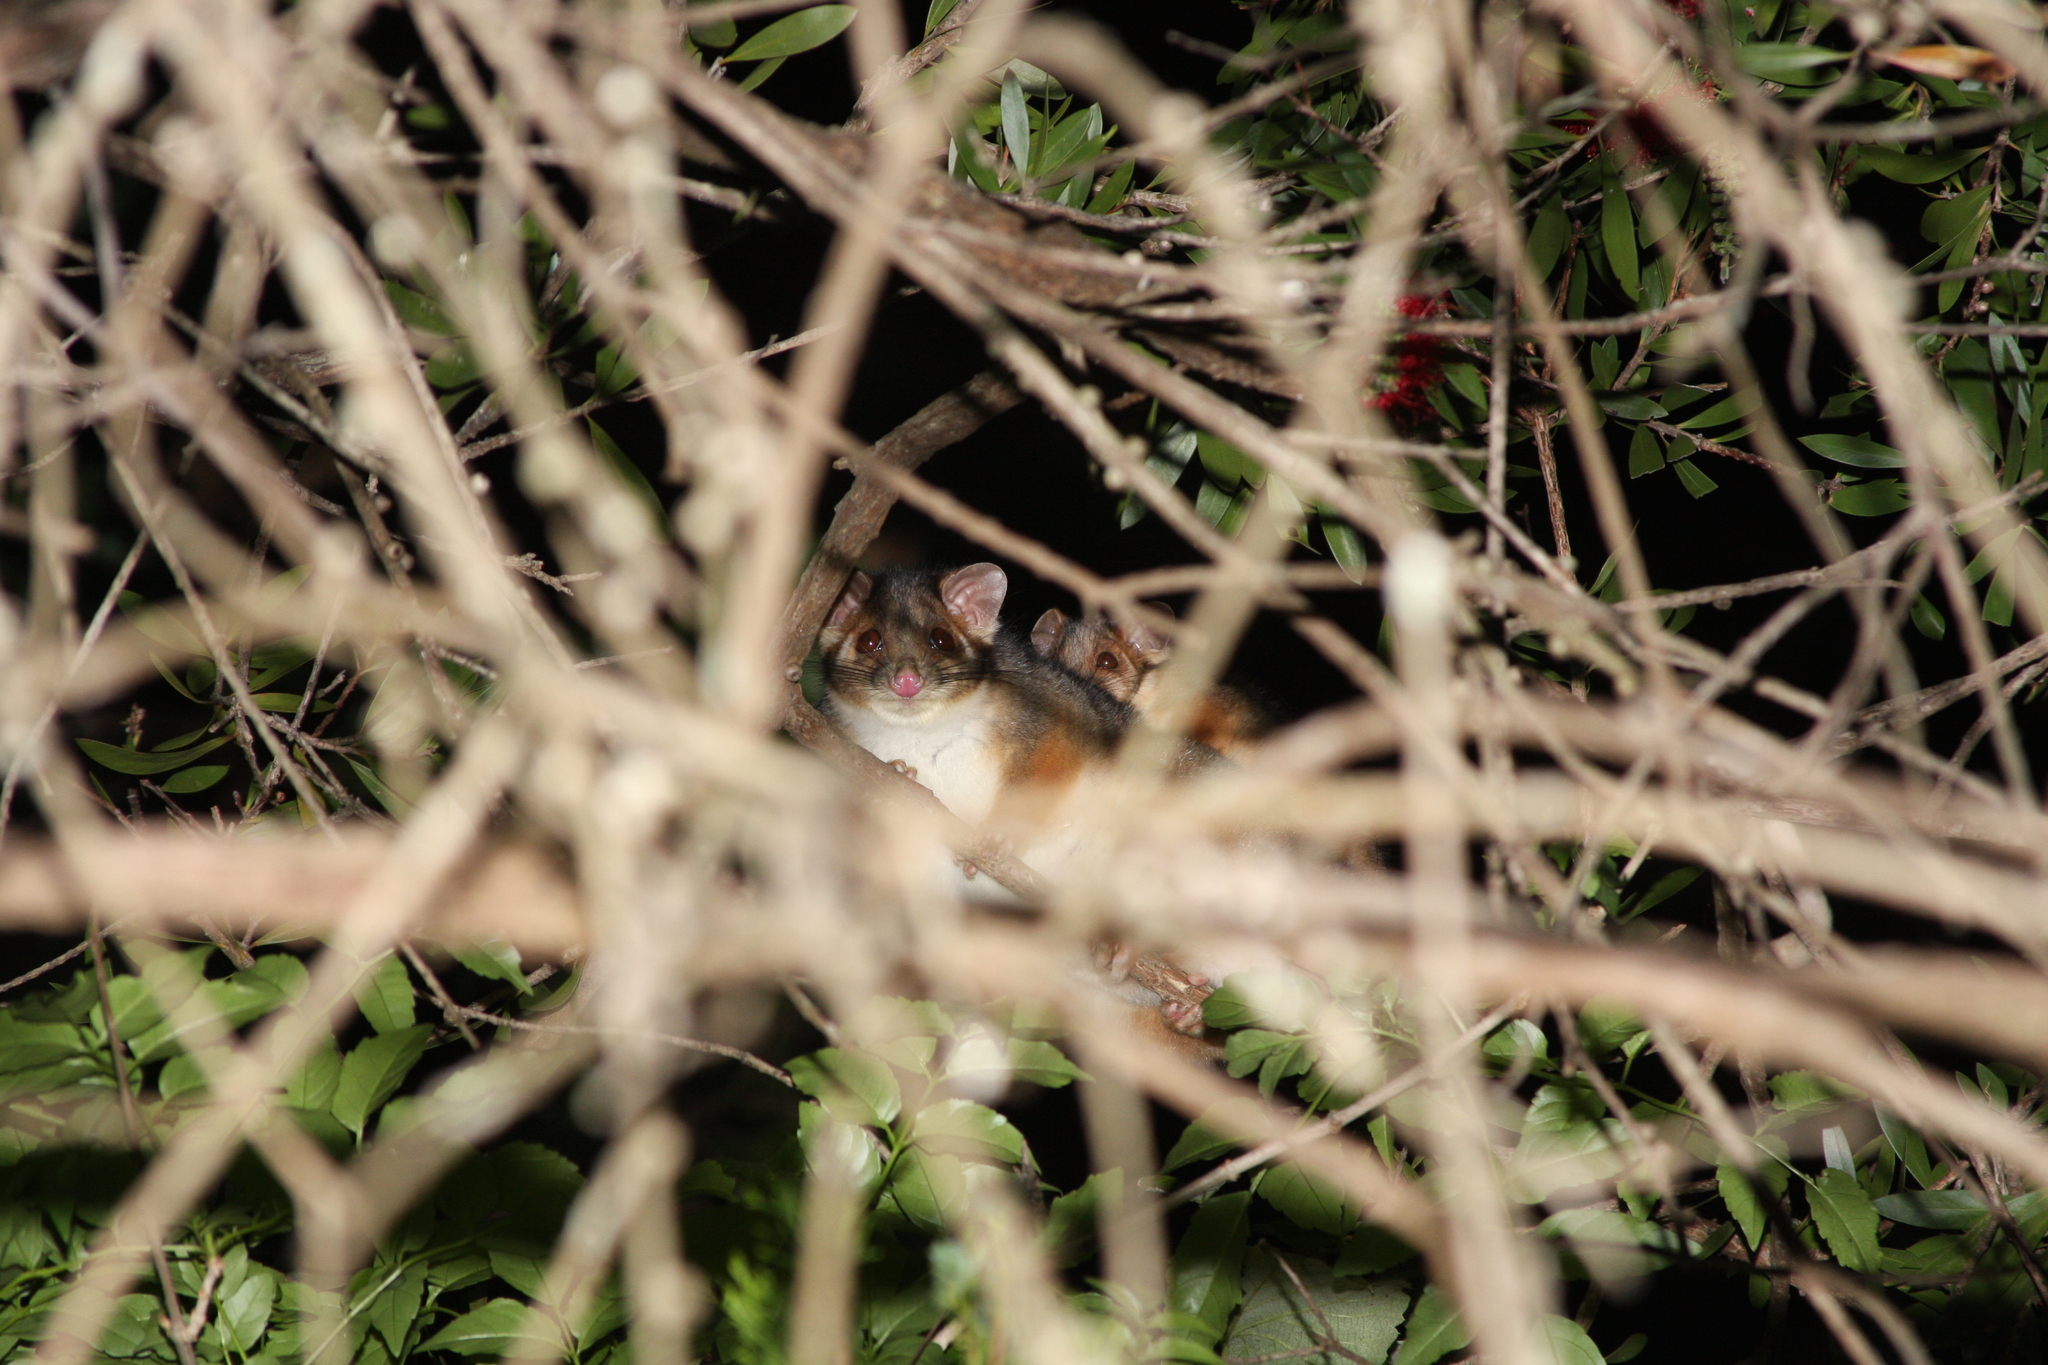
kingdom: Animalia
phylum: Chordata
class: Mammalia
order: Diprotodontia
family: Pseudocheiridae
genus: Pseudocheirus
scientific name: Pseudocheirus peregrinus
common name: Common ringtail possum
